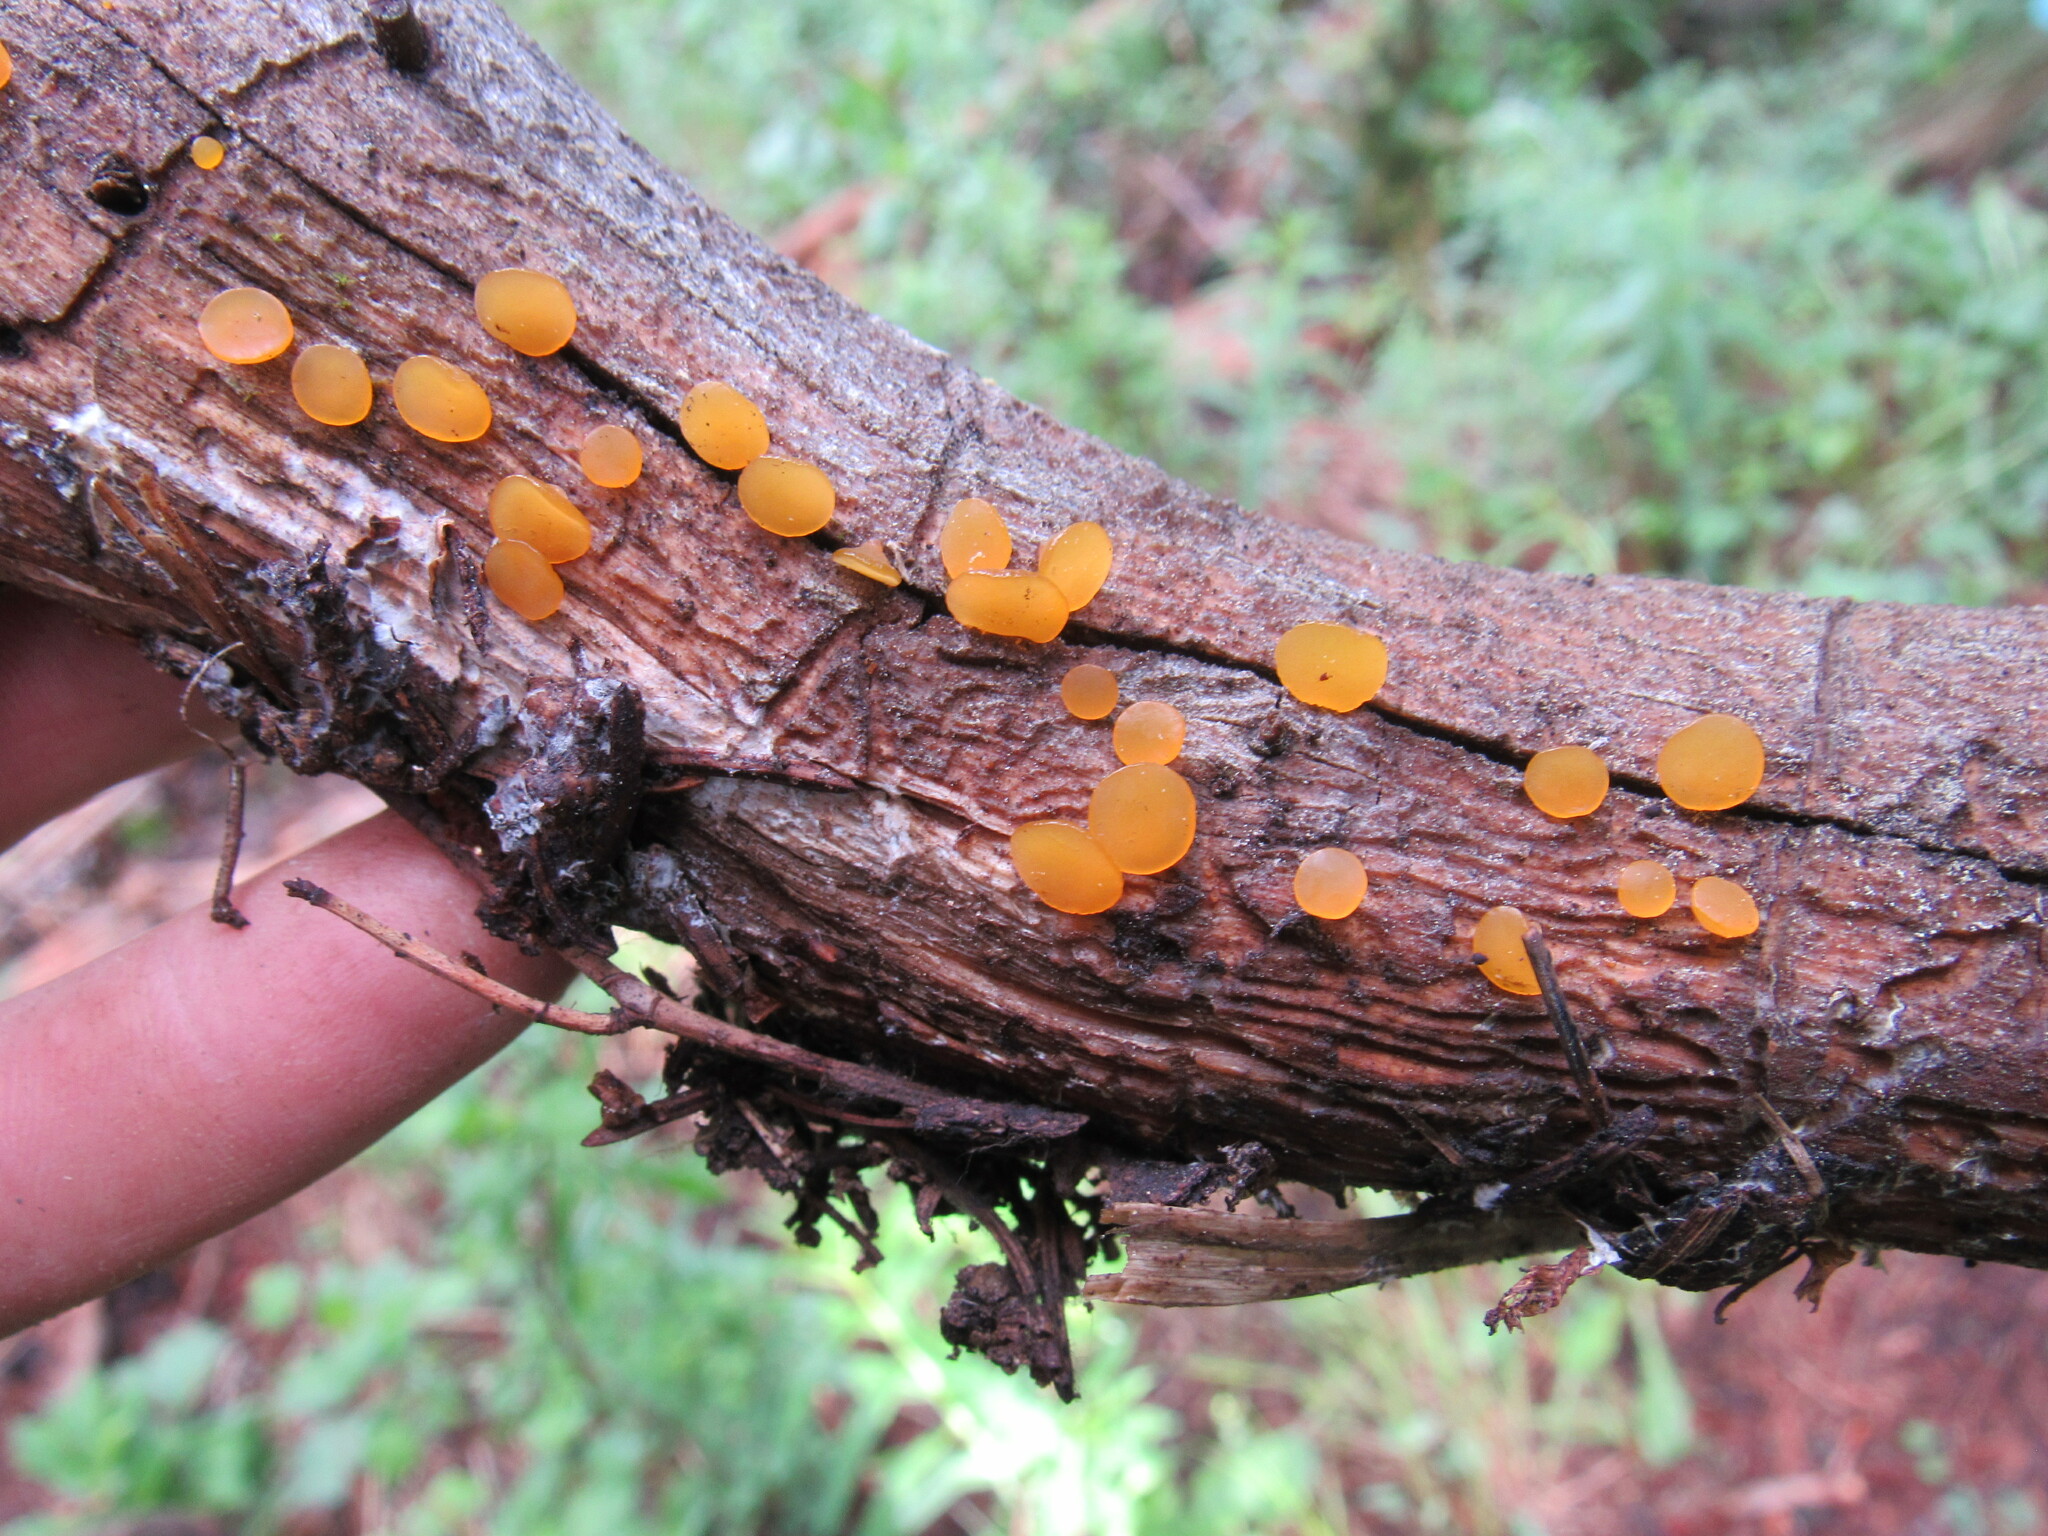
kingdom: Fungi
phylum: Basidiomycota
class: Dacrymycetes
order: Dacrymycetales
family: Dacrymycetaceae
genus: Guepiniopsis
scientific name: Guepiniopsis alpina
